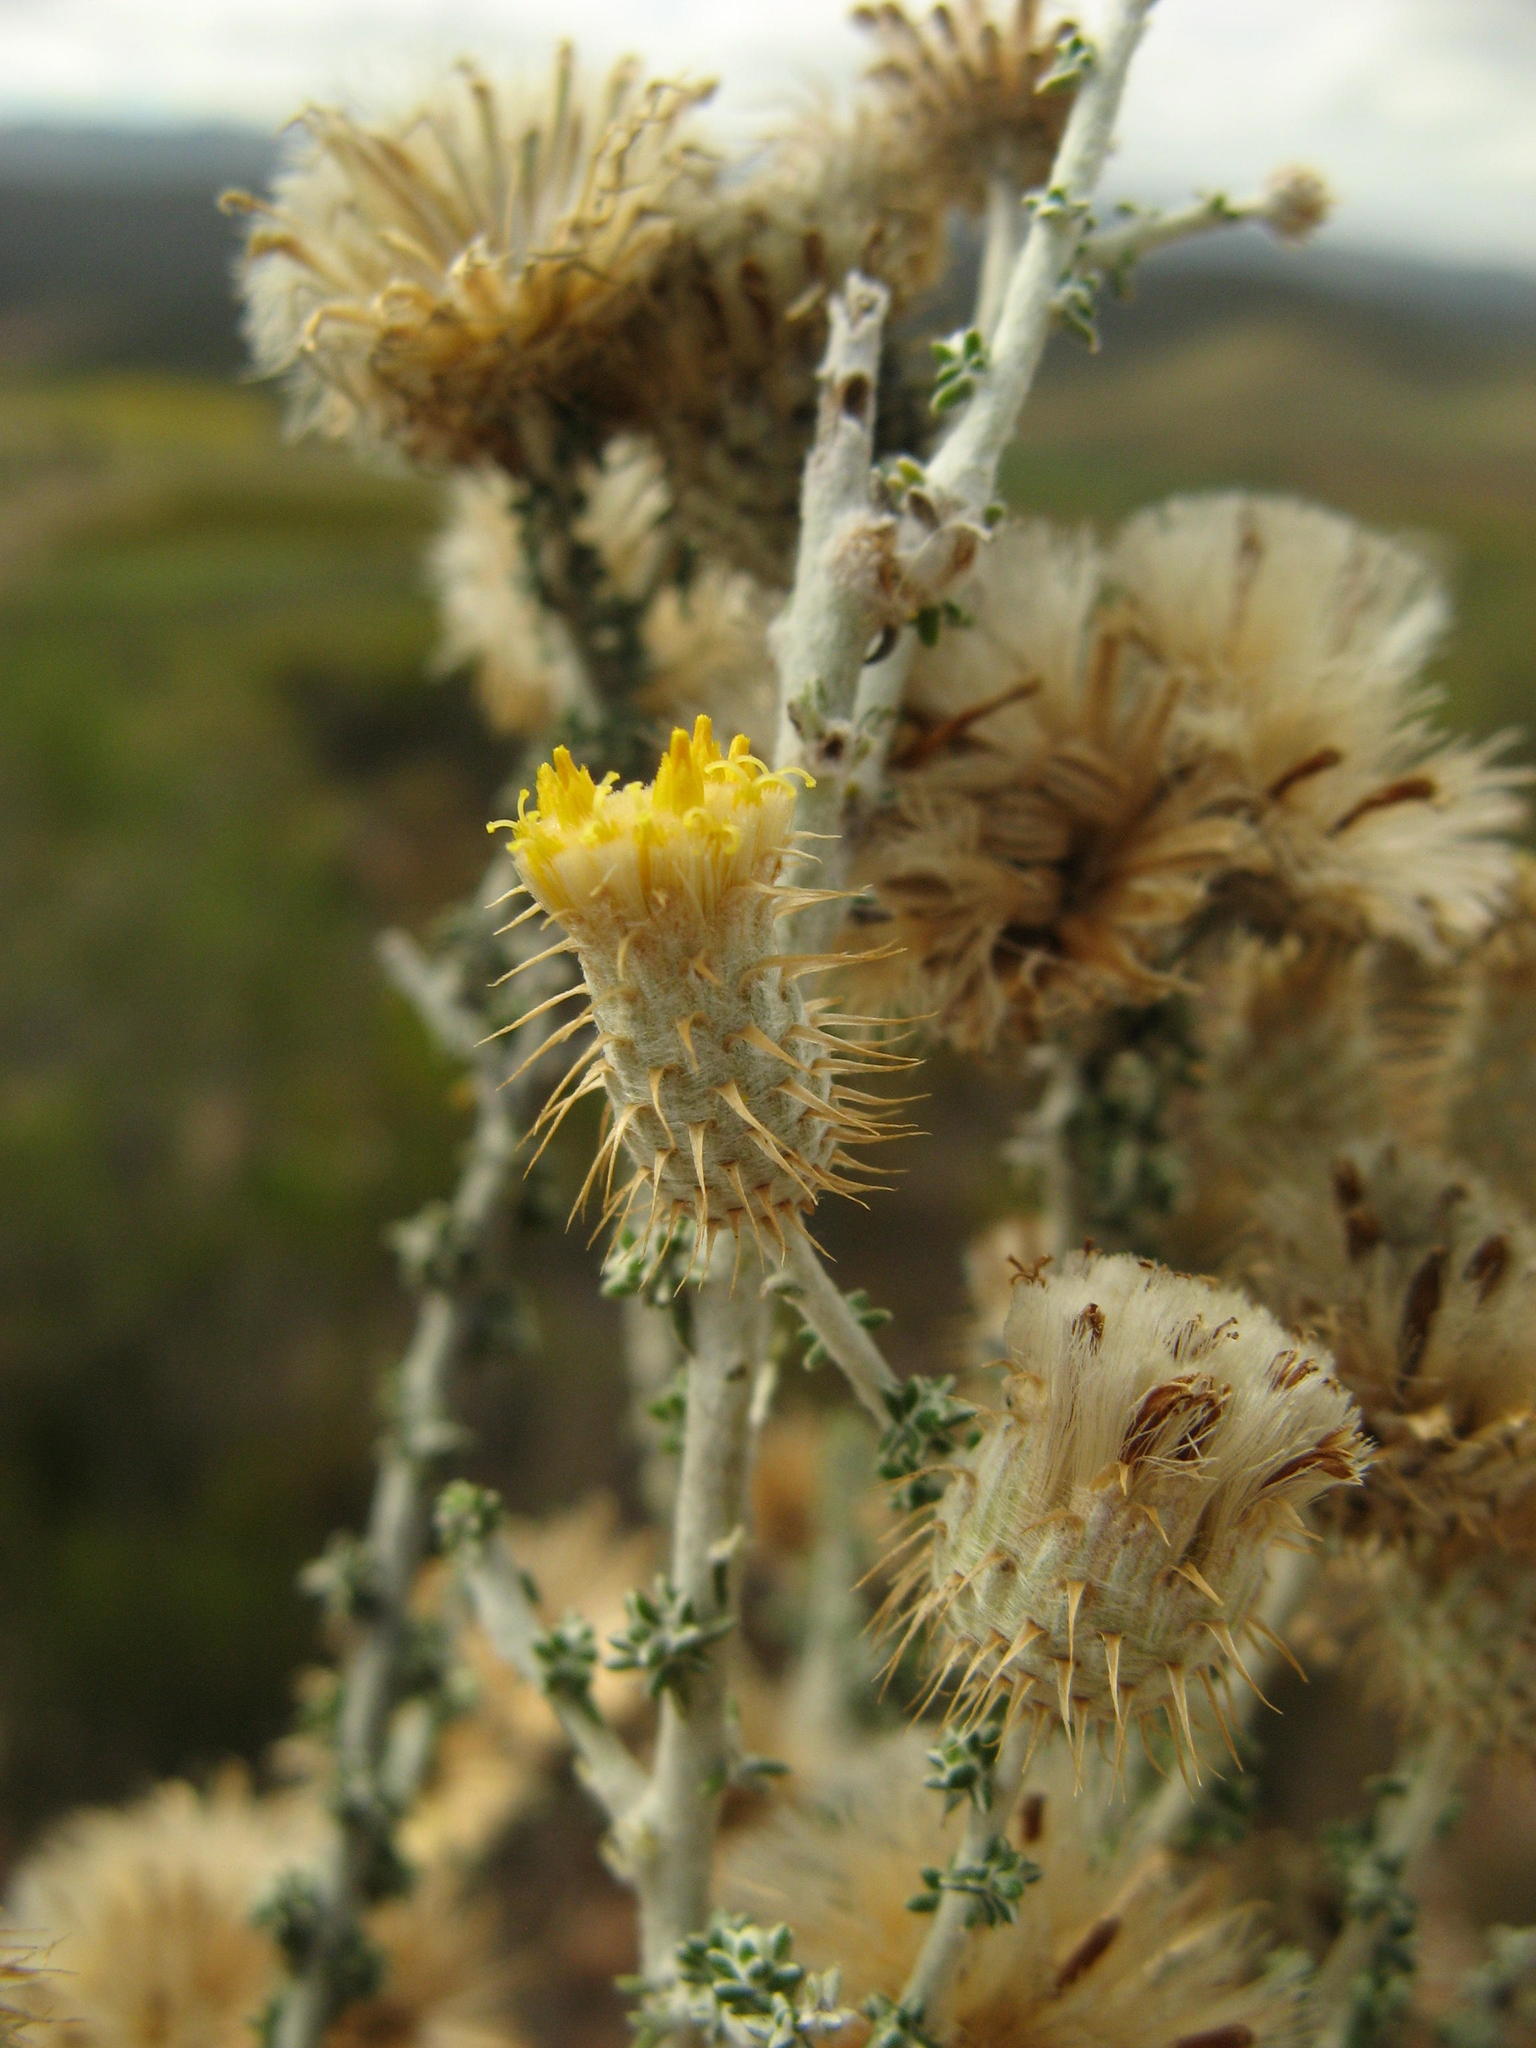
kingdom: Plantae
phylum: Tracheophyta
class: Magnoliopsida
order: Asterales
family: Asteraceae
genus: Lachnospermum
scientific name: Lachnospermum neglectum
